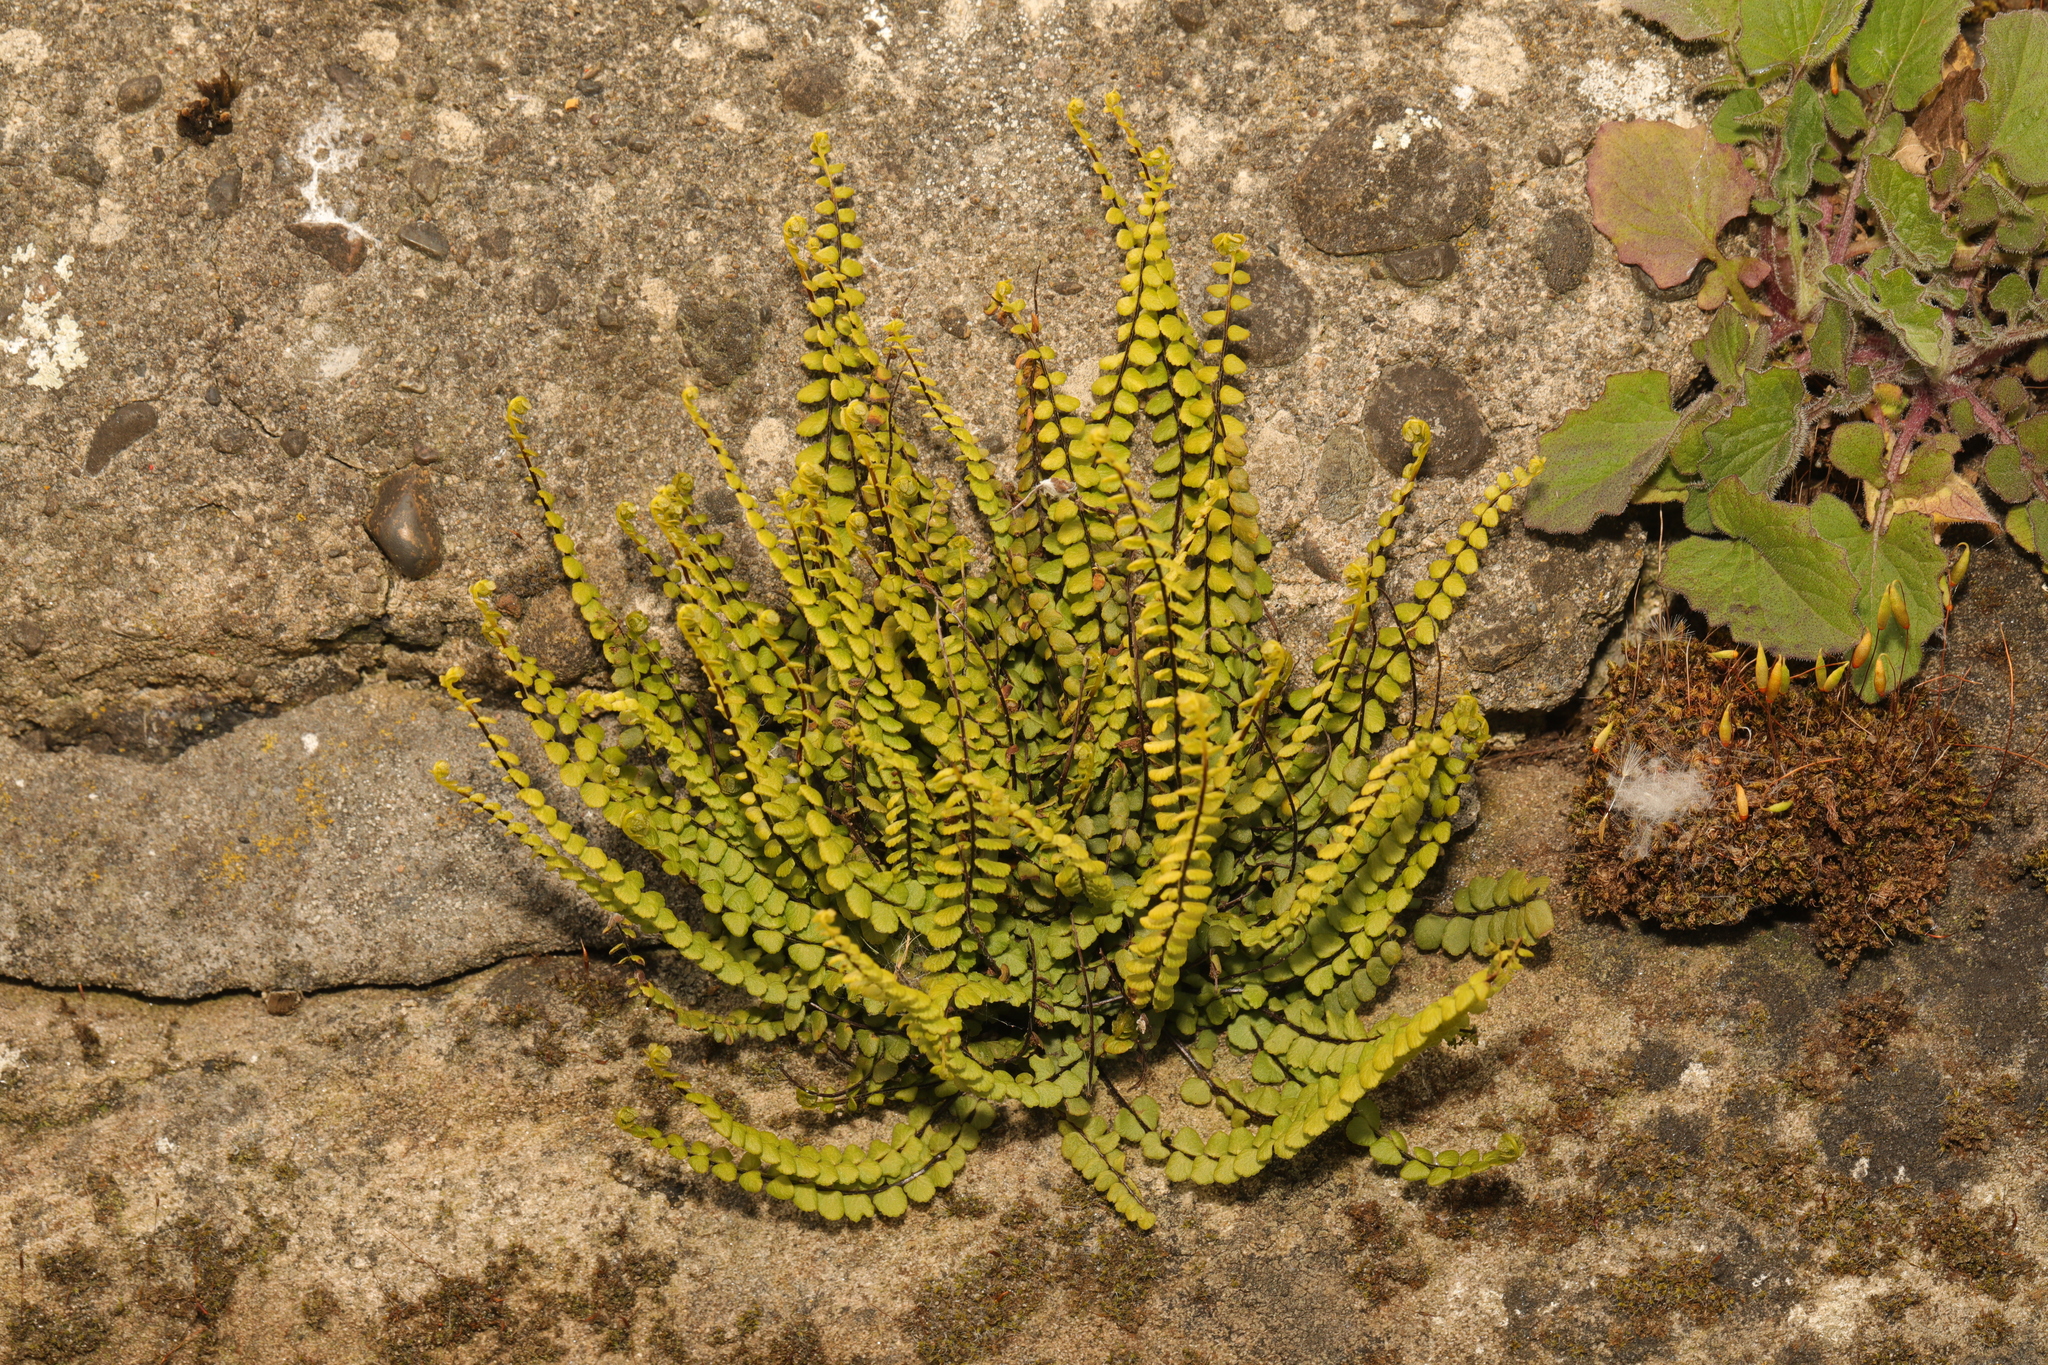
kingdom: Plantae
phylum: Tracheophyta
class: Polypodiopsida
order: Polypodiales
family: Aspleniaceae
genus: Asplenium
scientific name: Asplenium trichomanes
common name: Maidenhair spleenwort
